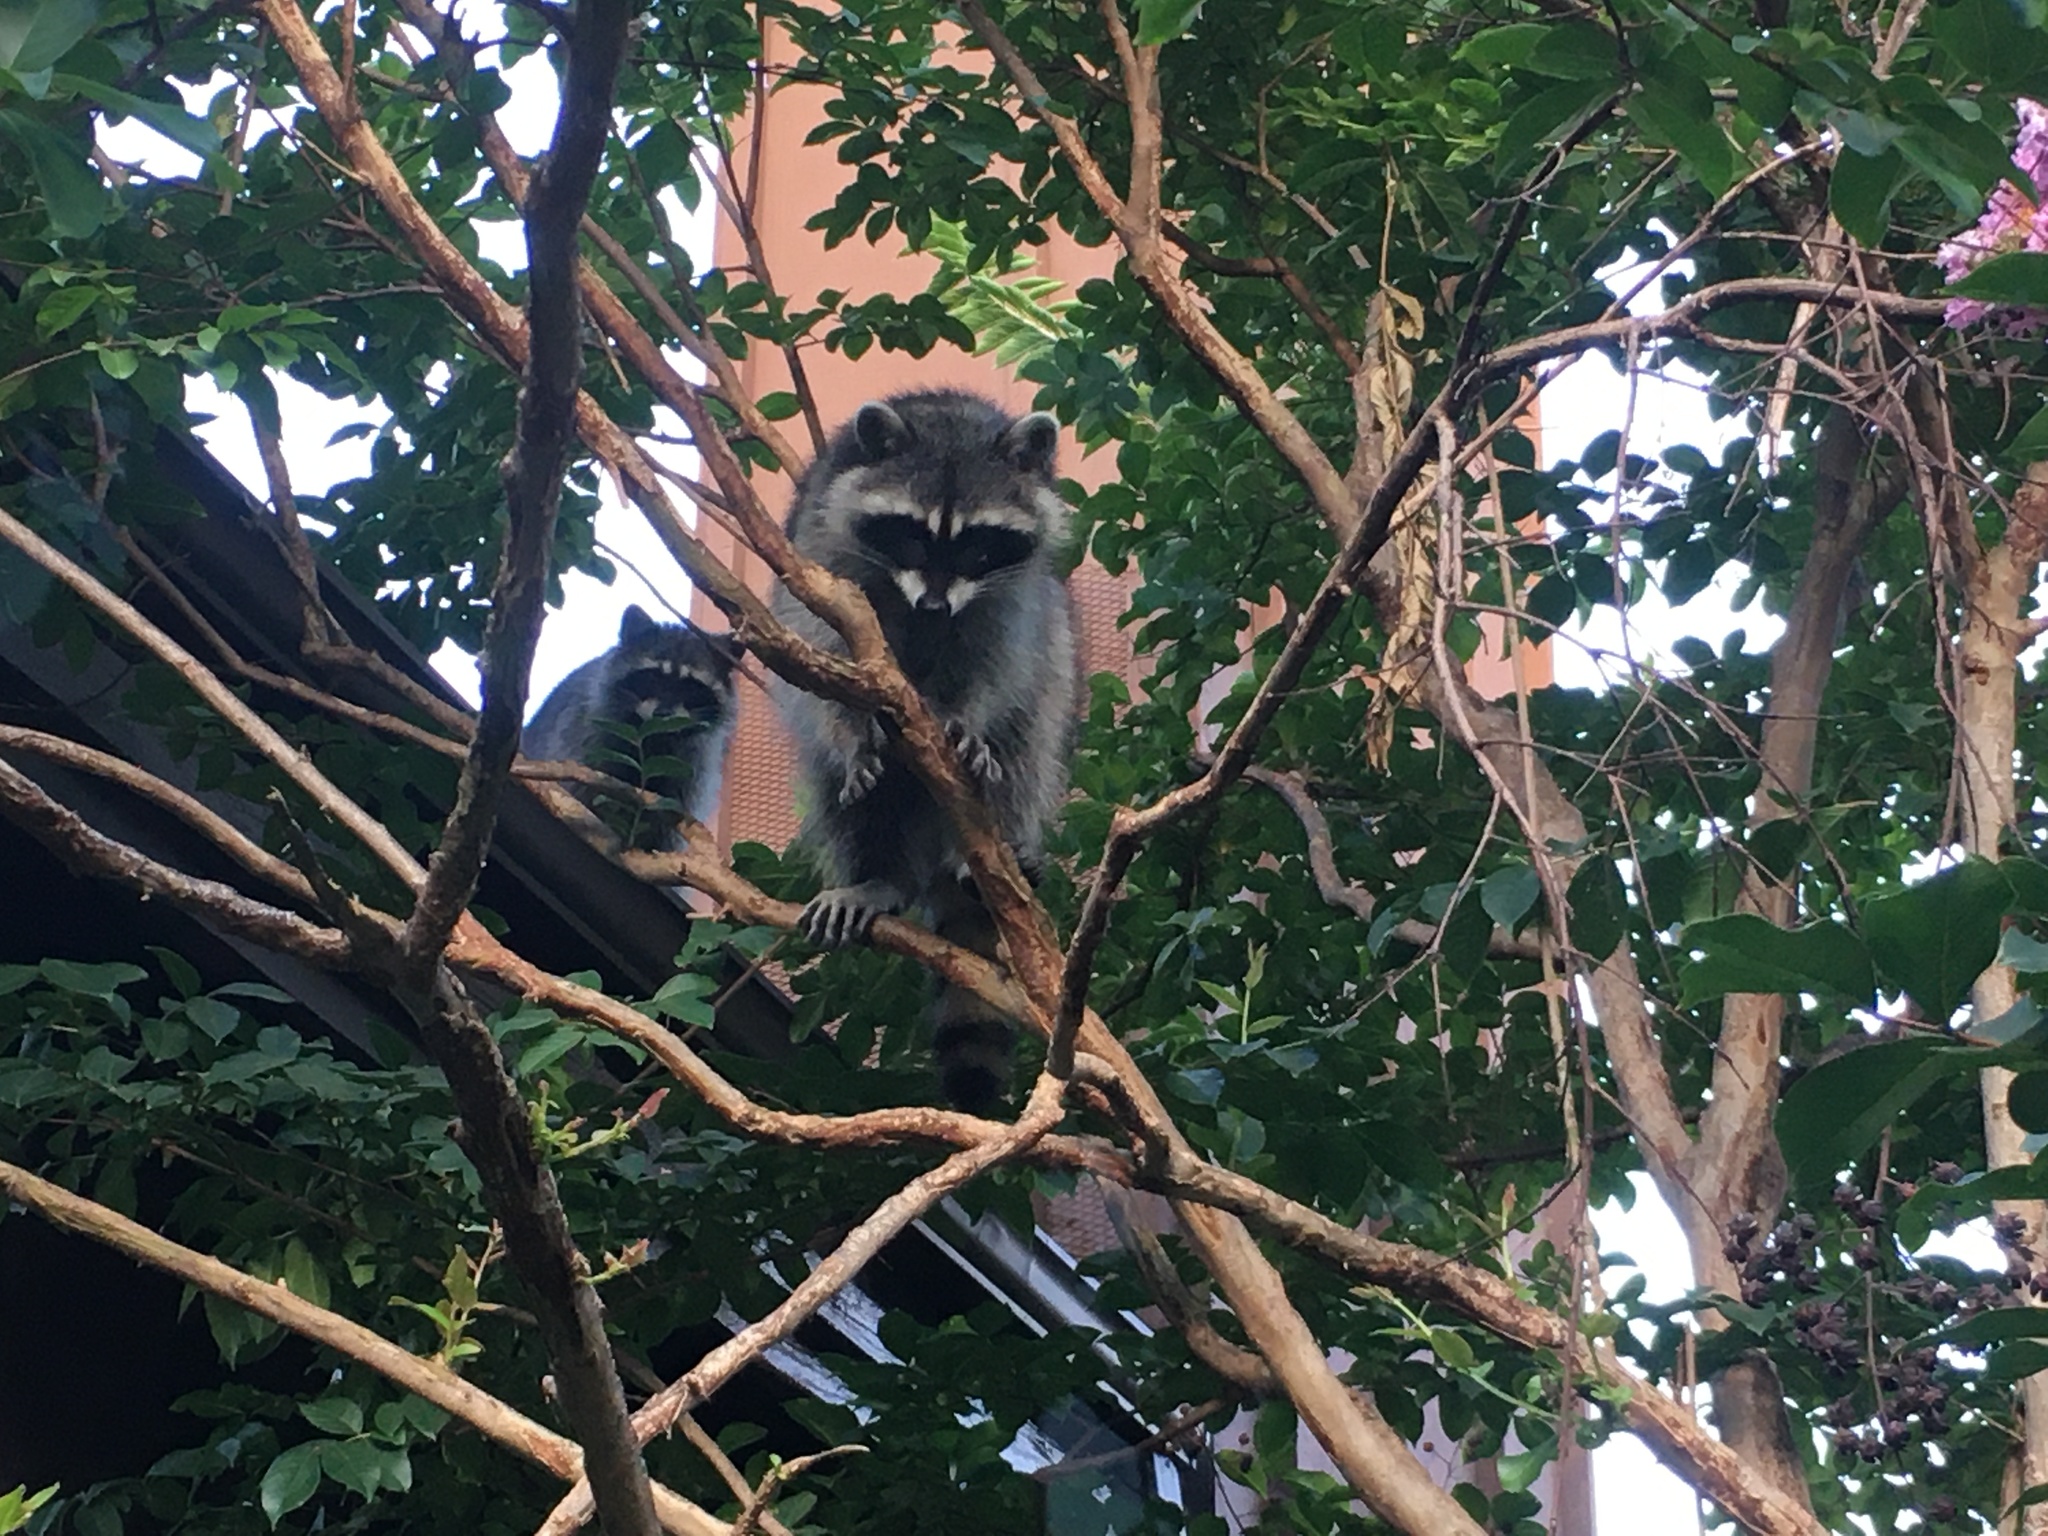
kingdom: Animalia
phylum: Chordata
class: Mammalia
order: Carnivora
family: Procyonidae
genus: Procyon
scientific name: Procyon lotor
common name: Raccoon
